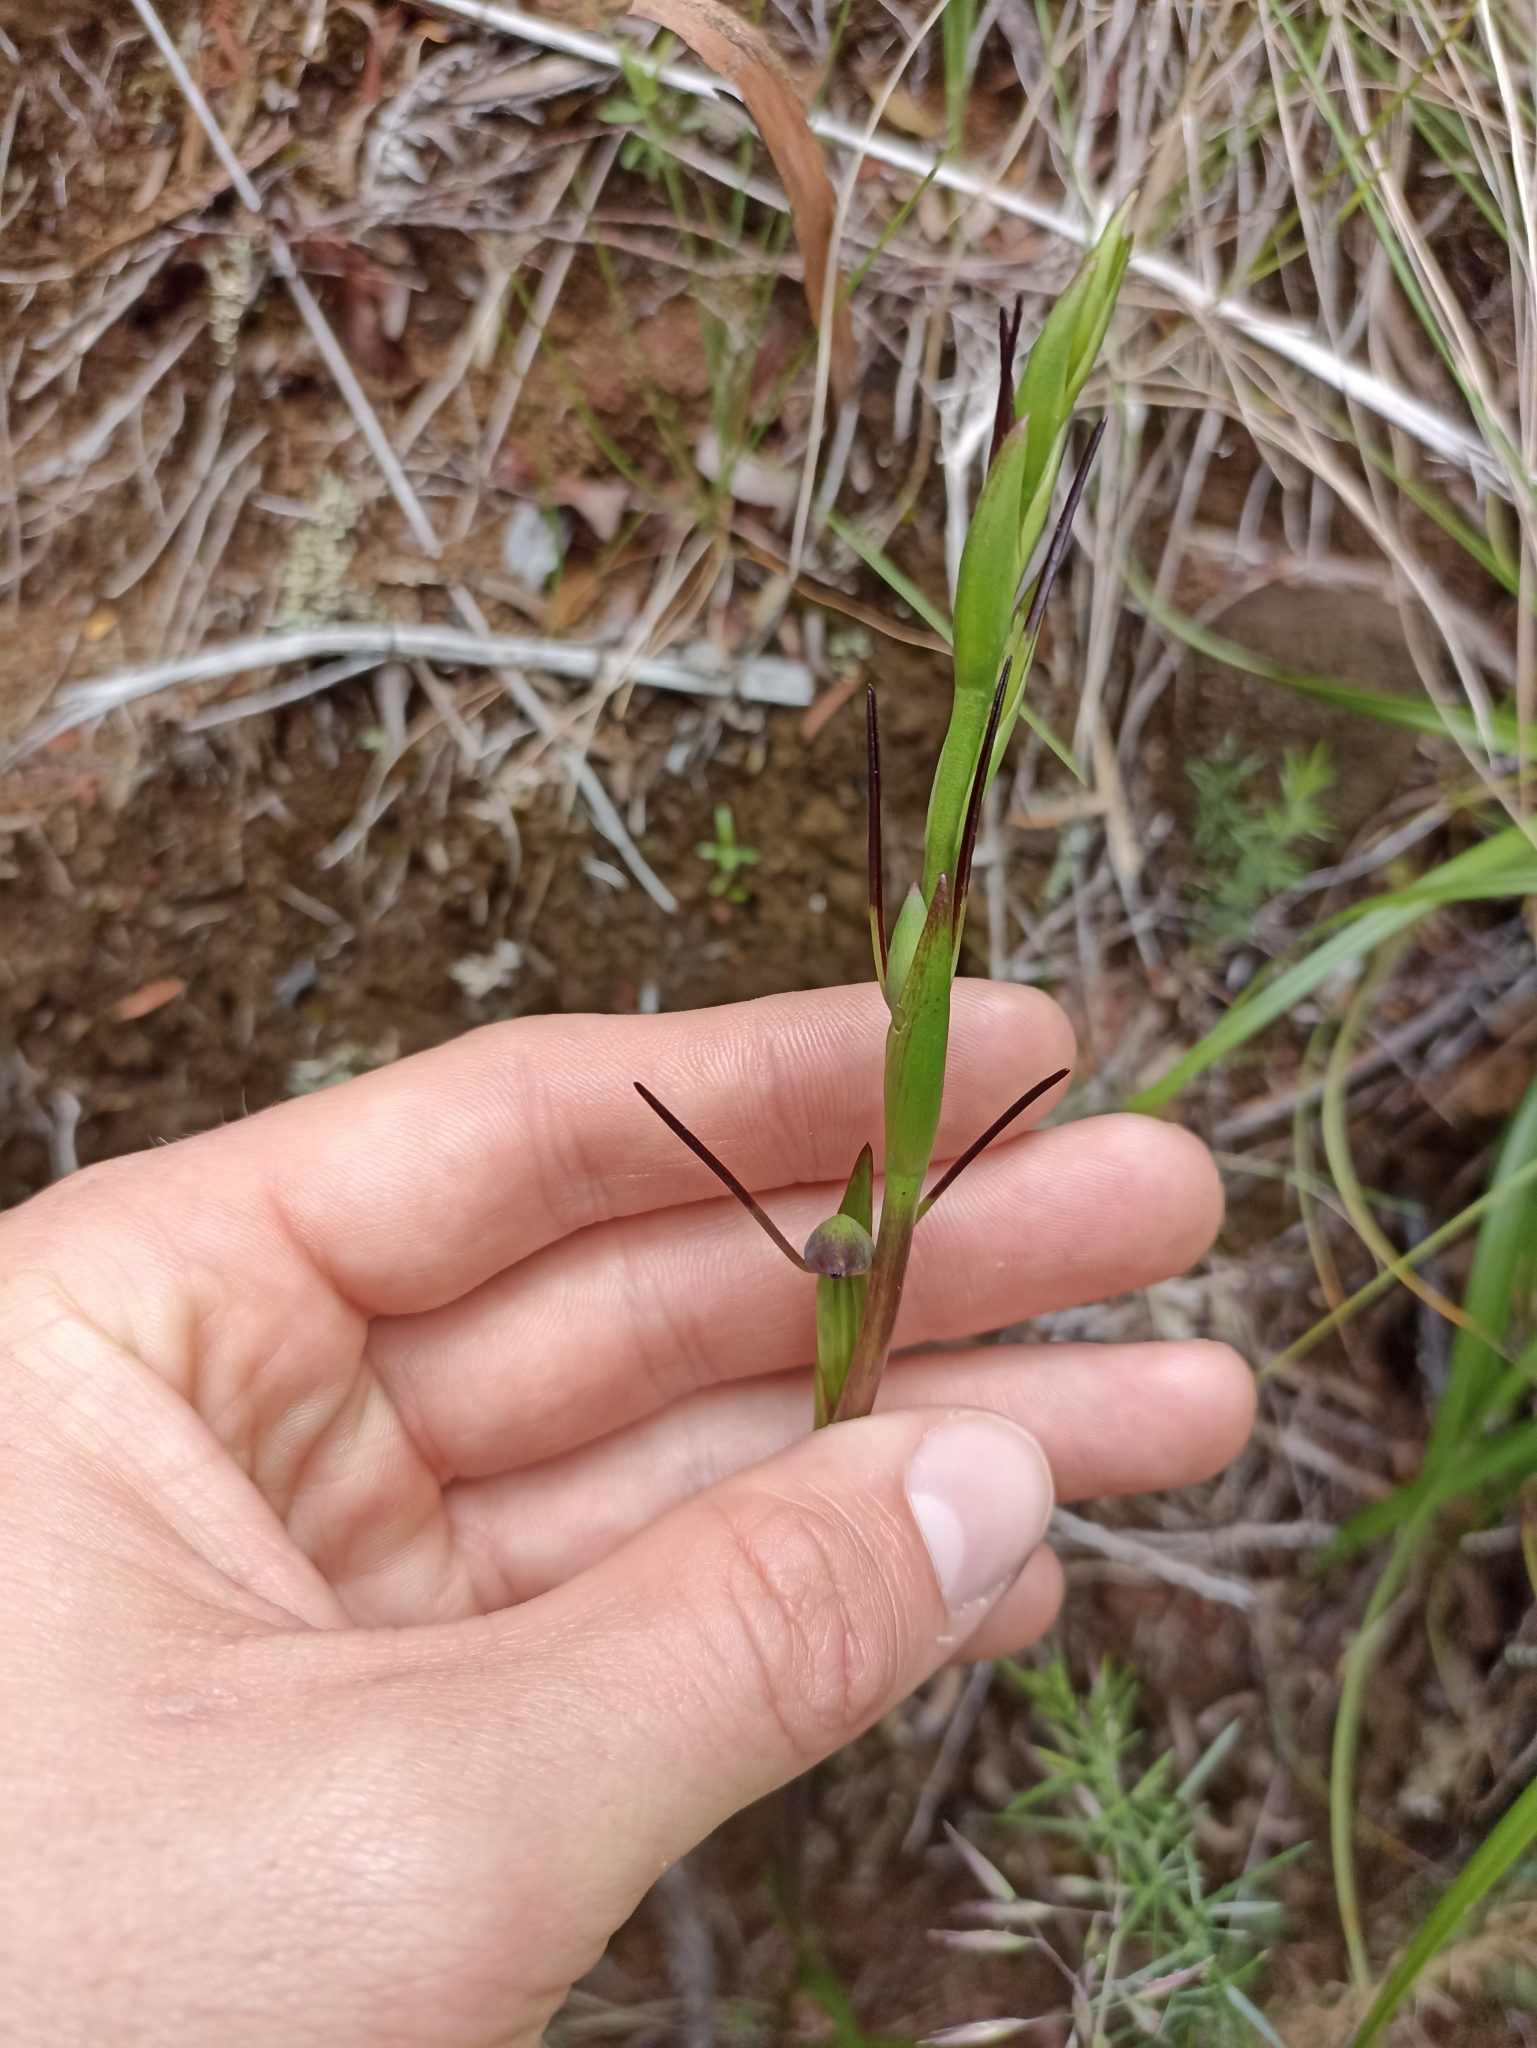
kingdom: Plantae
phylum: Tracheophyta
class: Liliopsida
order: Asparagales
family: Orchidaceae
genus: Orthoceras
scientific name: Orthoceras novae-zeelandiae
